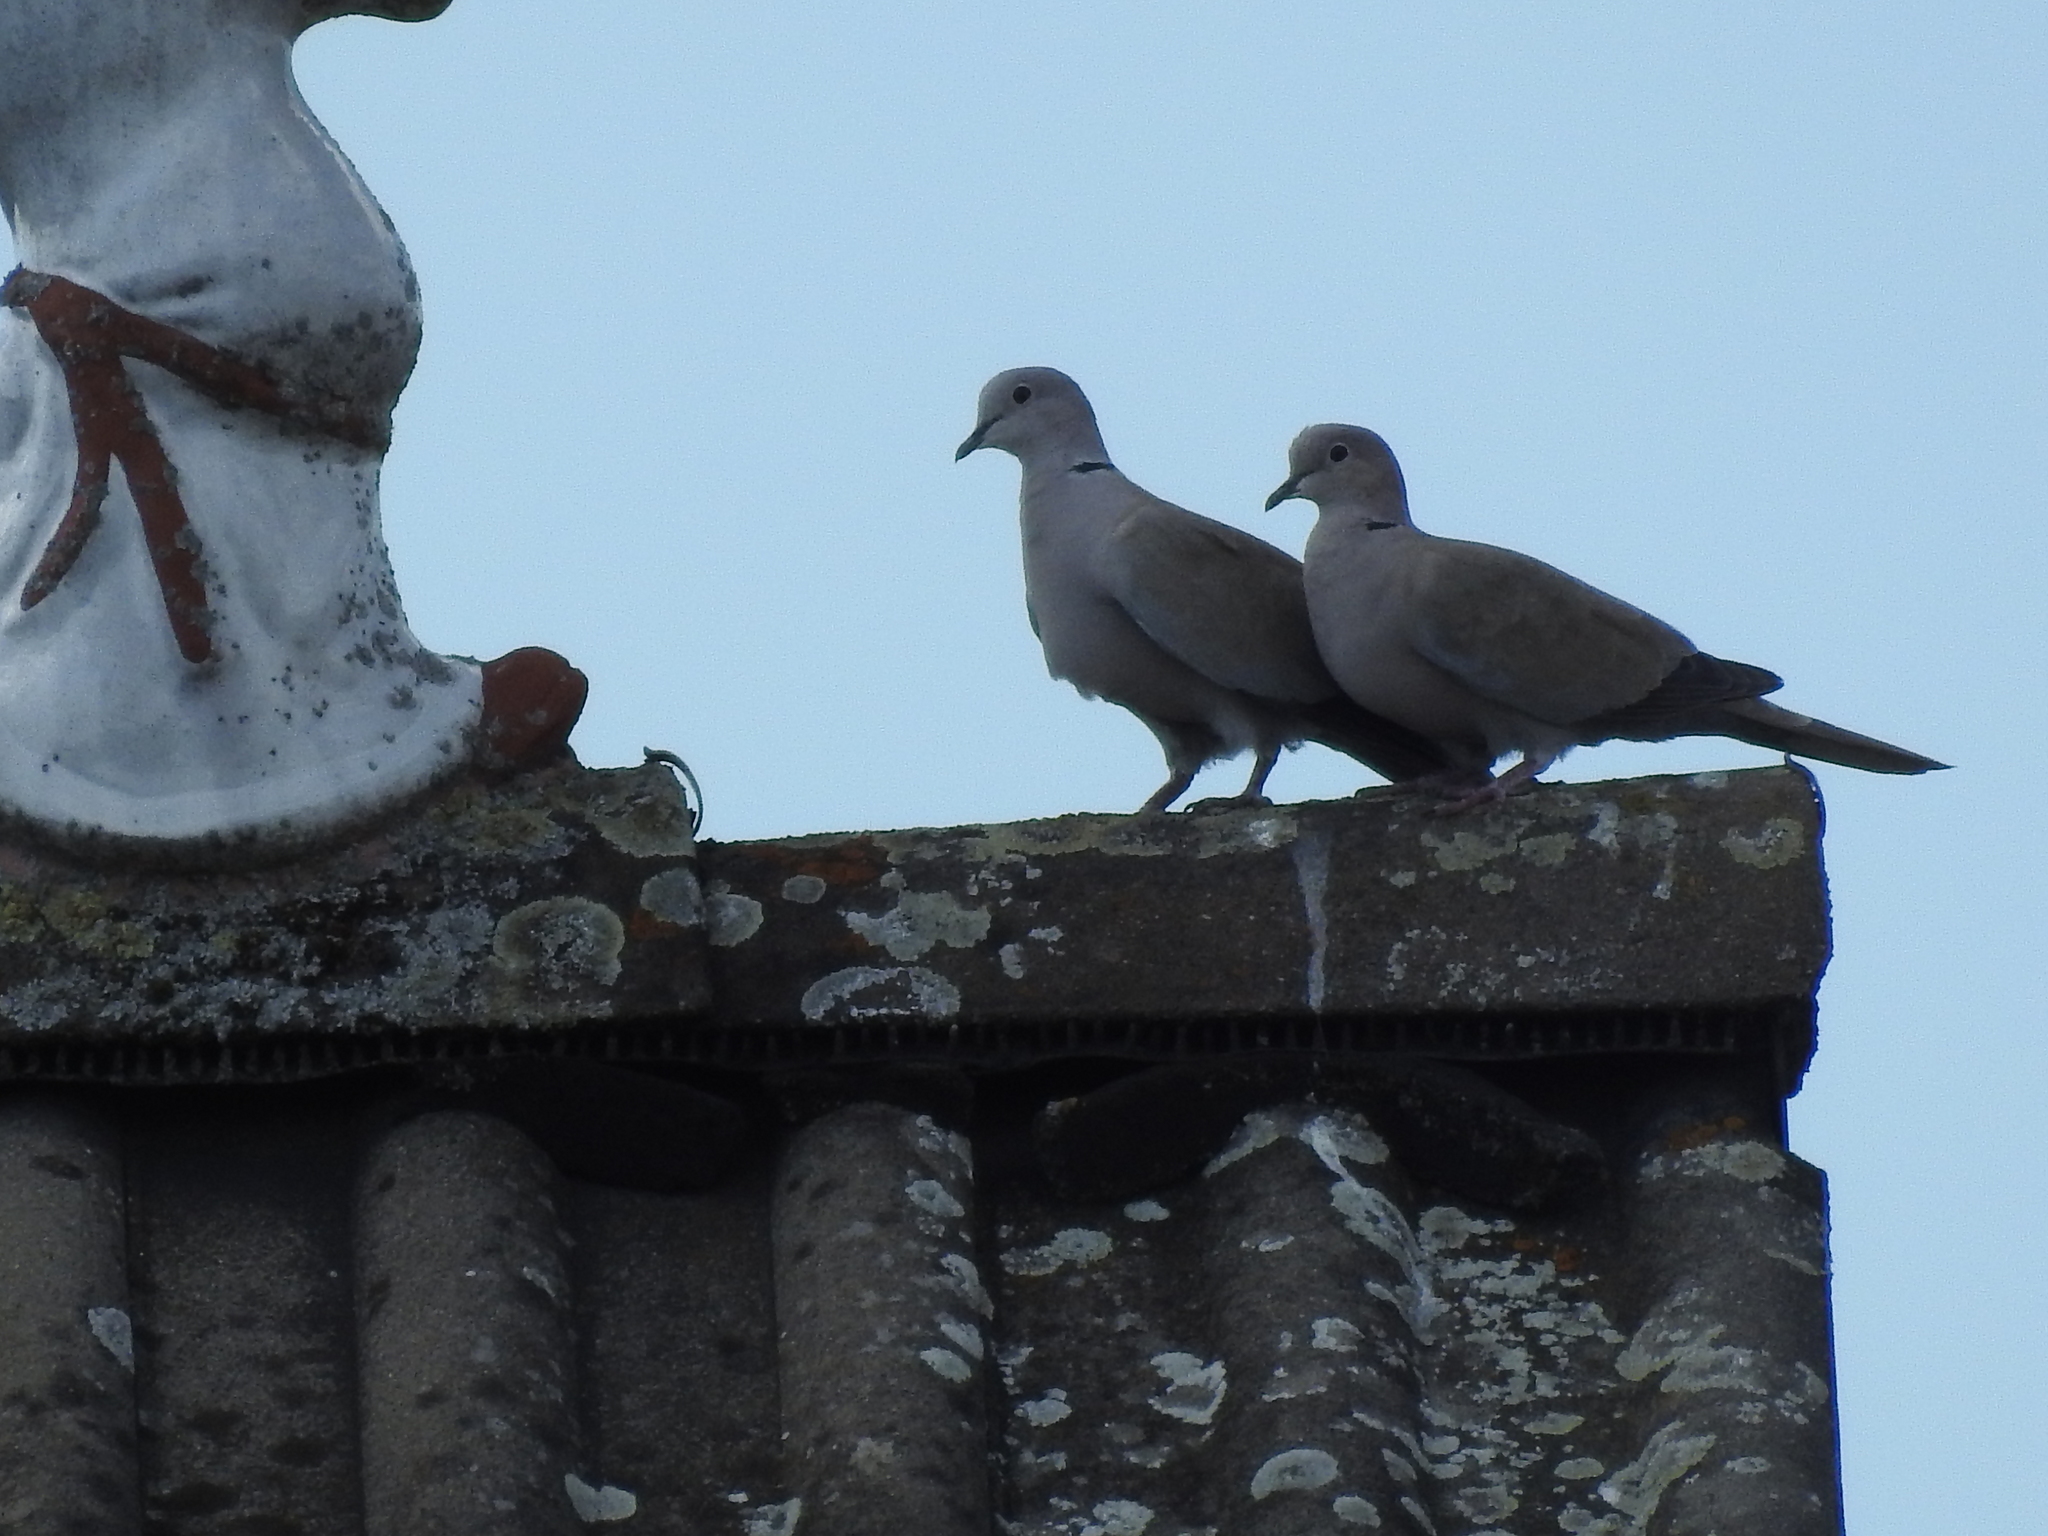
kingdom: Animalia
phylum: Chordata
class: Aves
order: Columbiformes
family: Columbidae
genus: Streptopelia
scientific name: Streptopelia decaocto
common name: Eurasian collared dove
